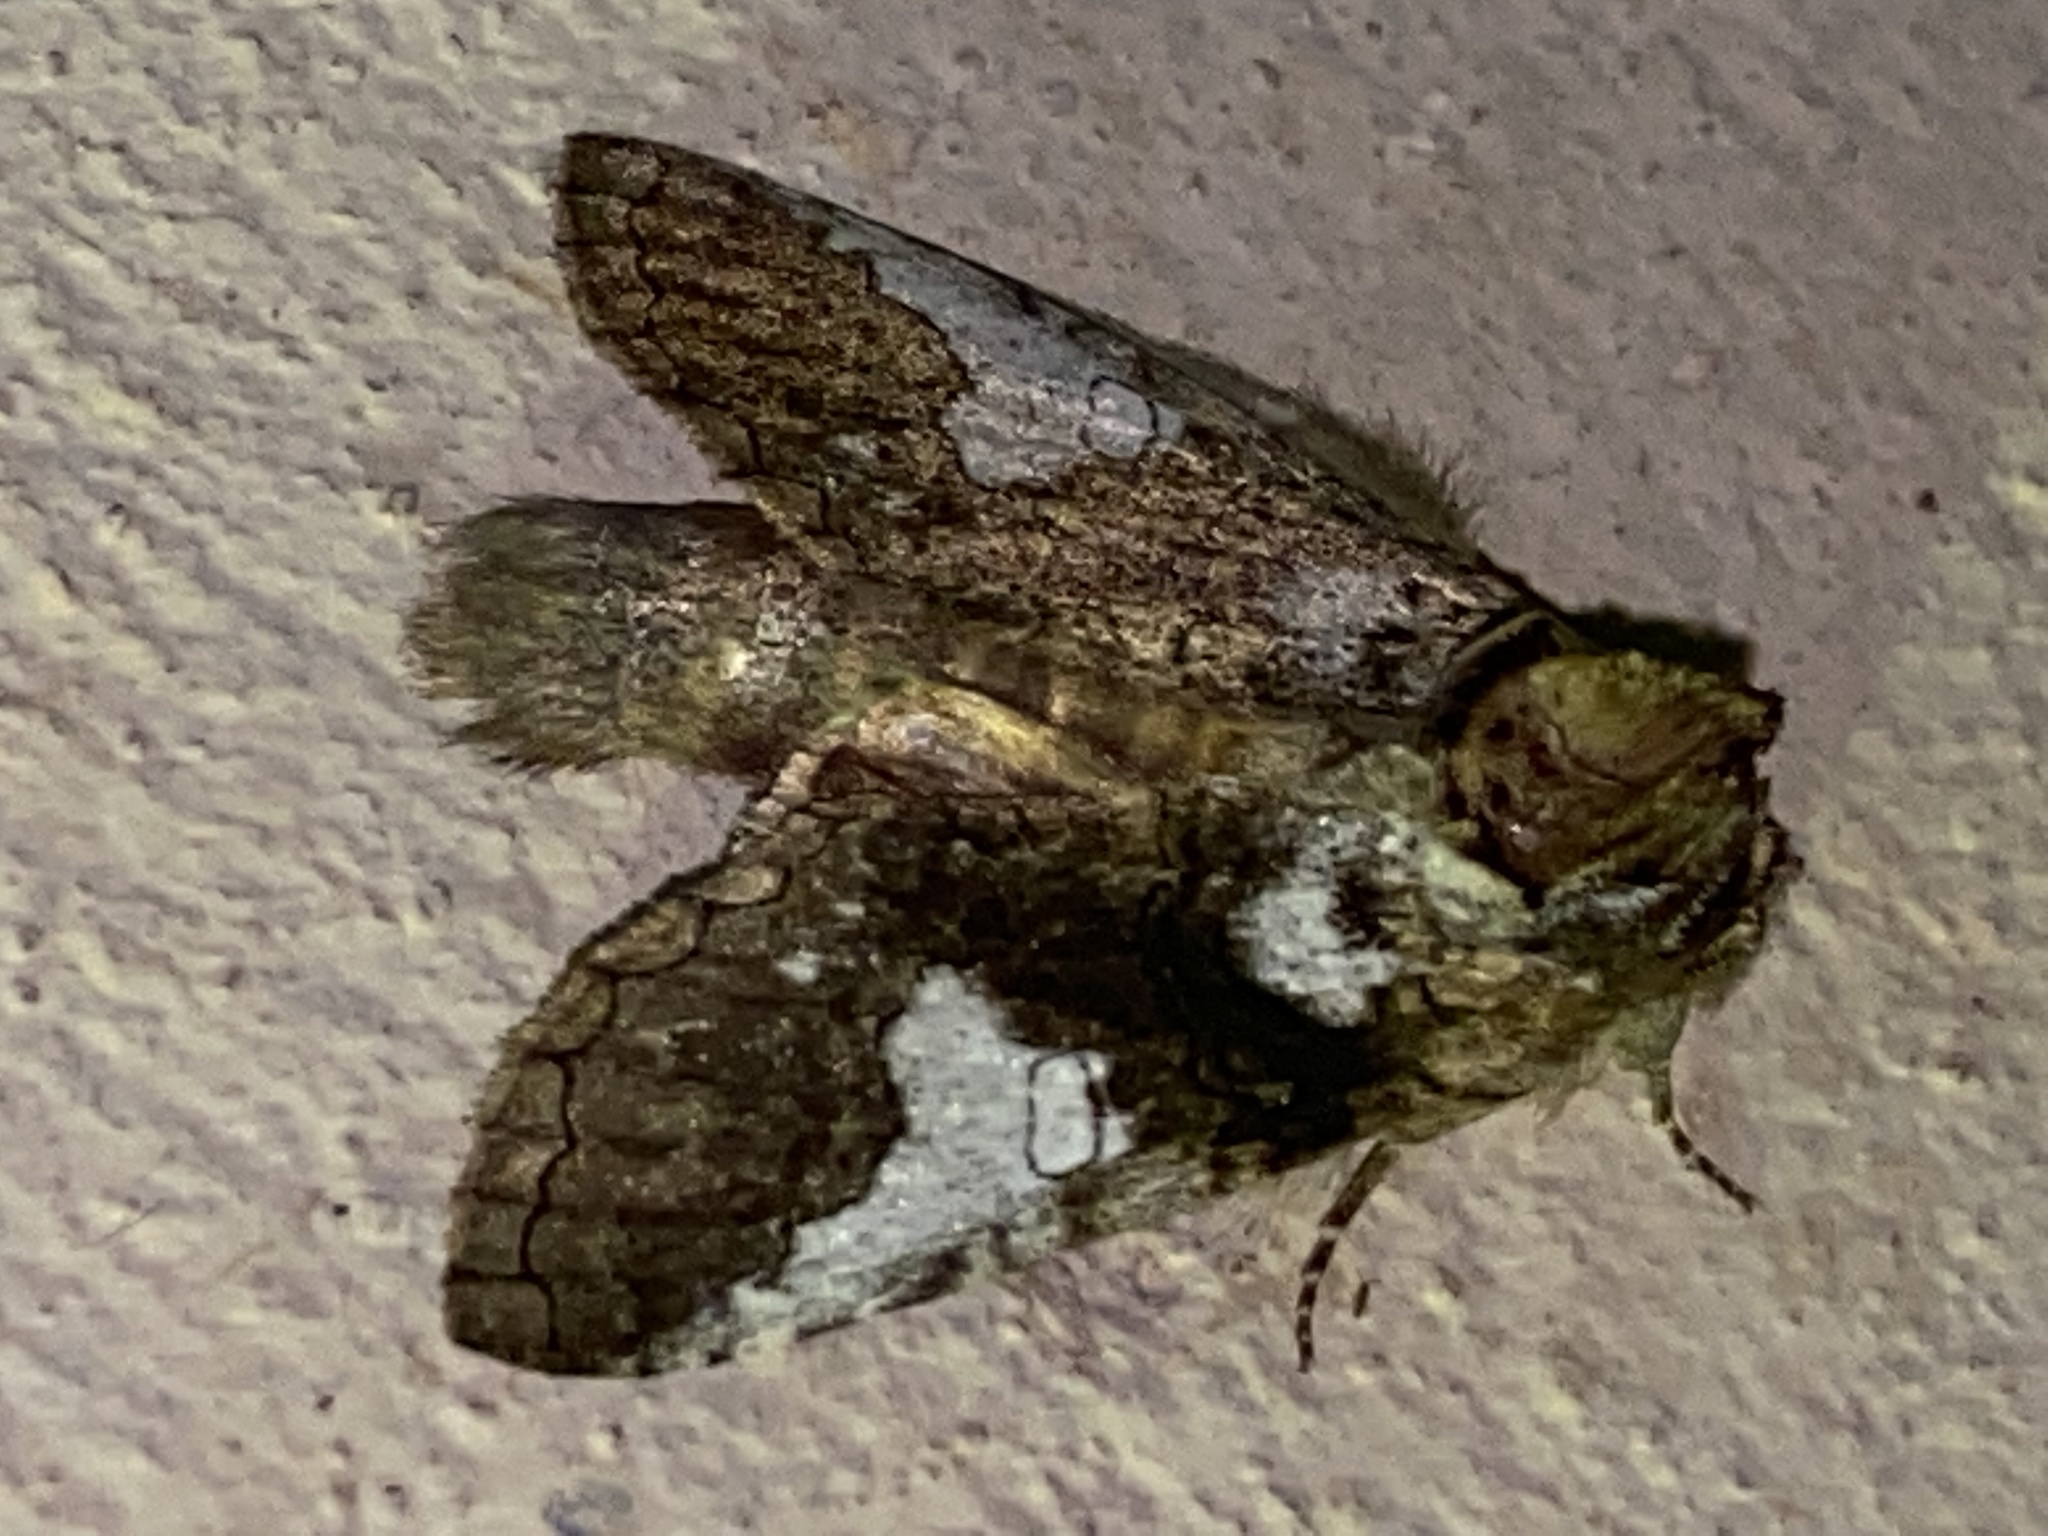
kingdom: Animalia
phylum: Arthropoda
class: Insecta
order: Lepidoptera
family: Notodontidae
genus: Rifargia
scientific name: Rifargia apella
